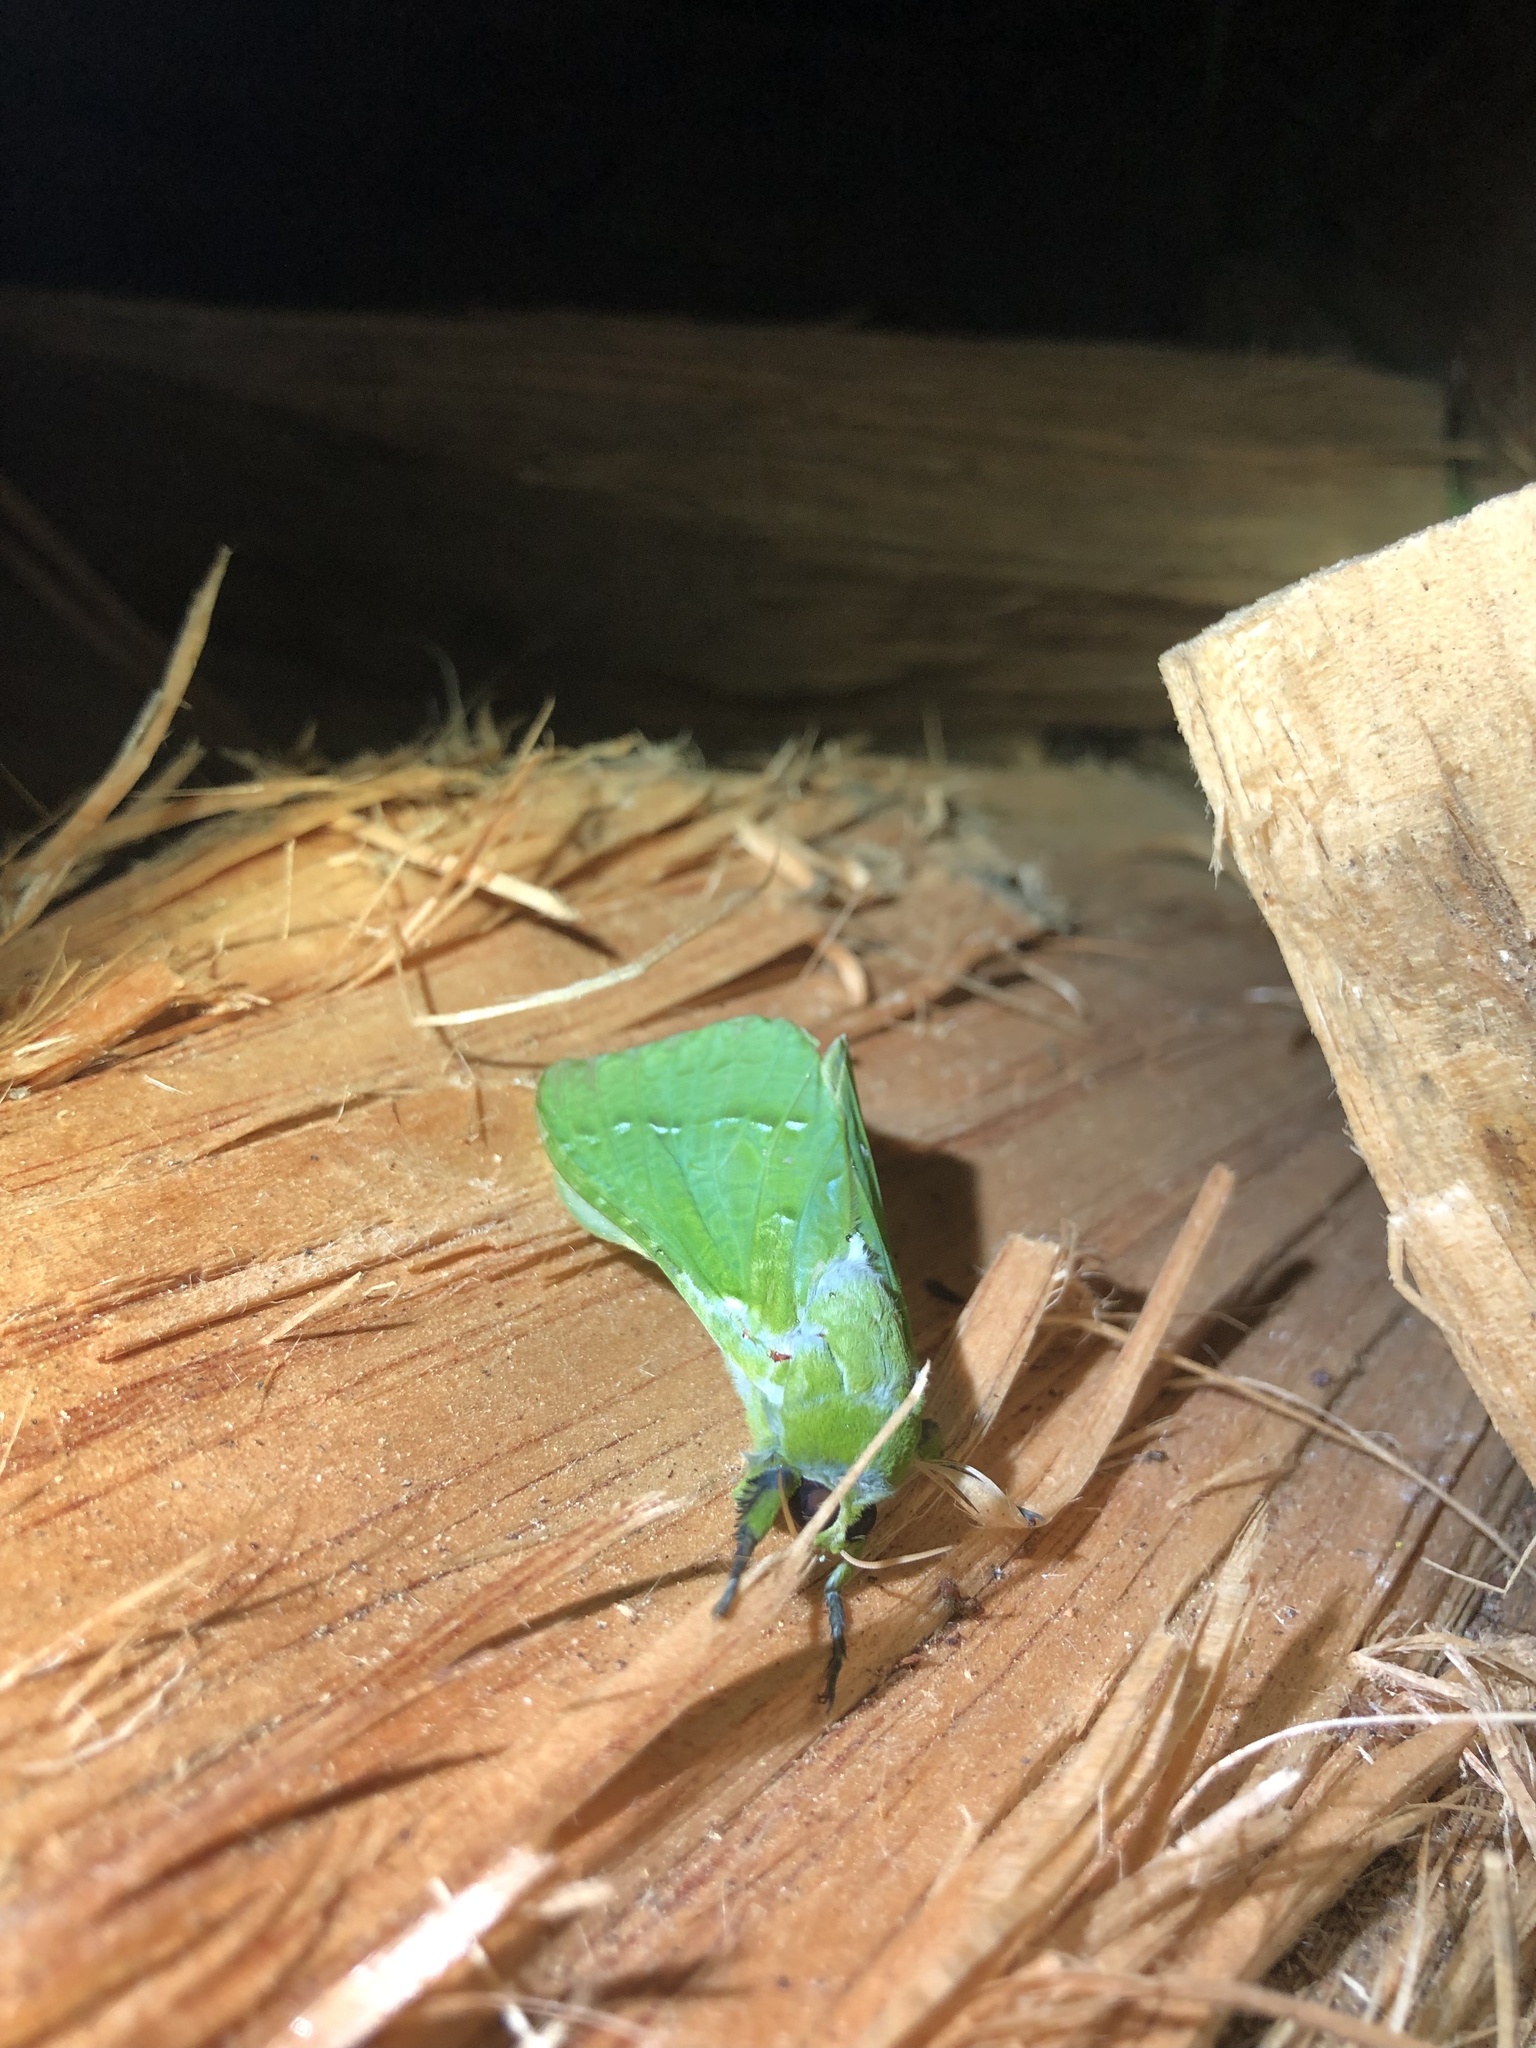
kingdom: Animalia
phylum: Arthropoda
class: Insecta
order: Lepidoptera
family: Hepialidae
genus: Aenetus
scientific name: Aenetus virescens
